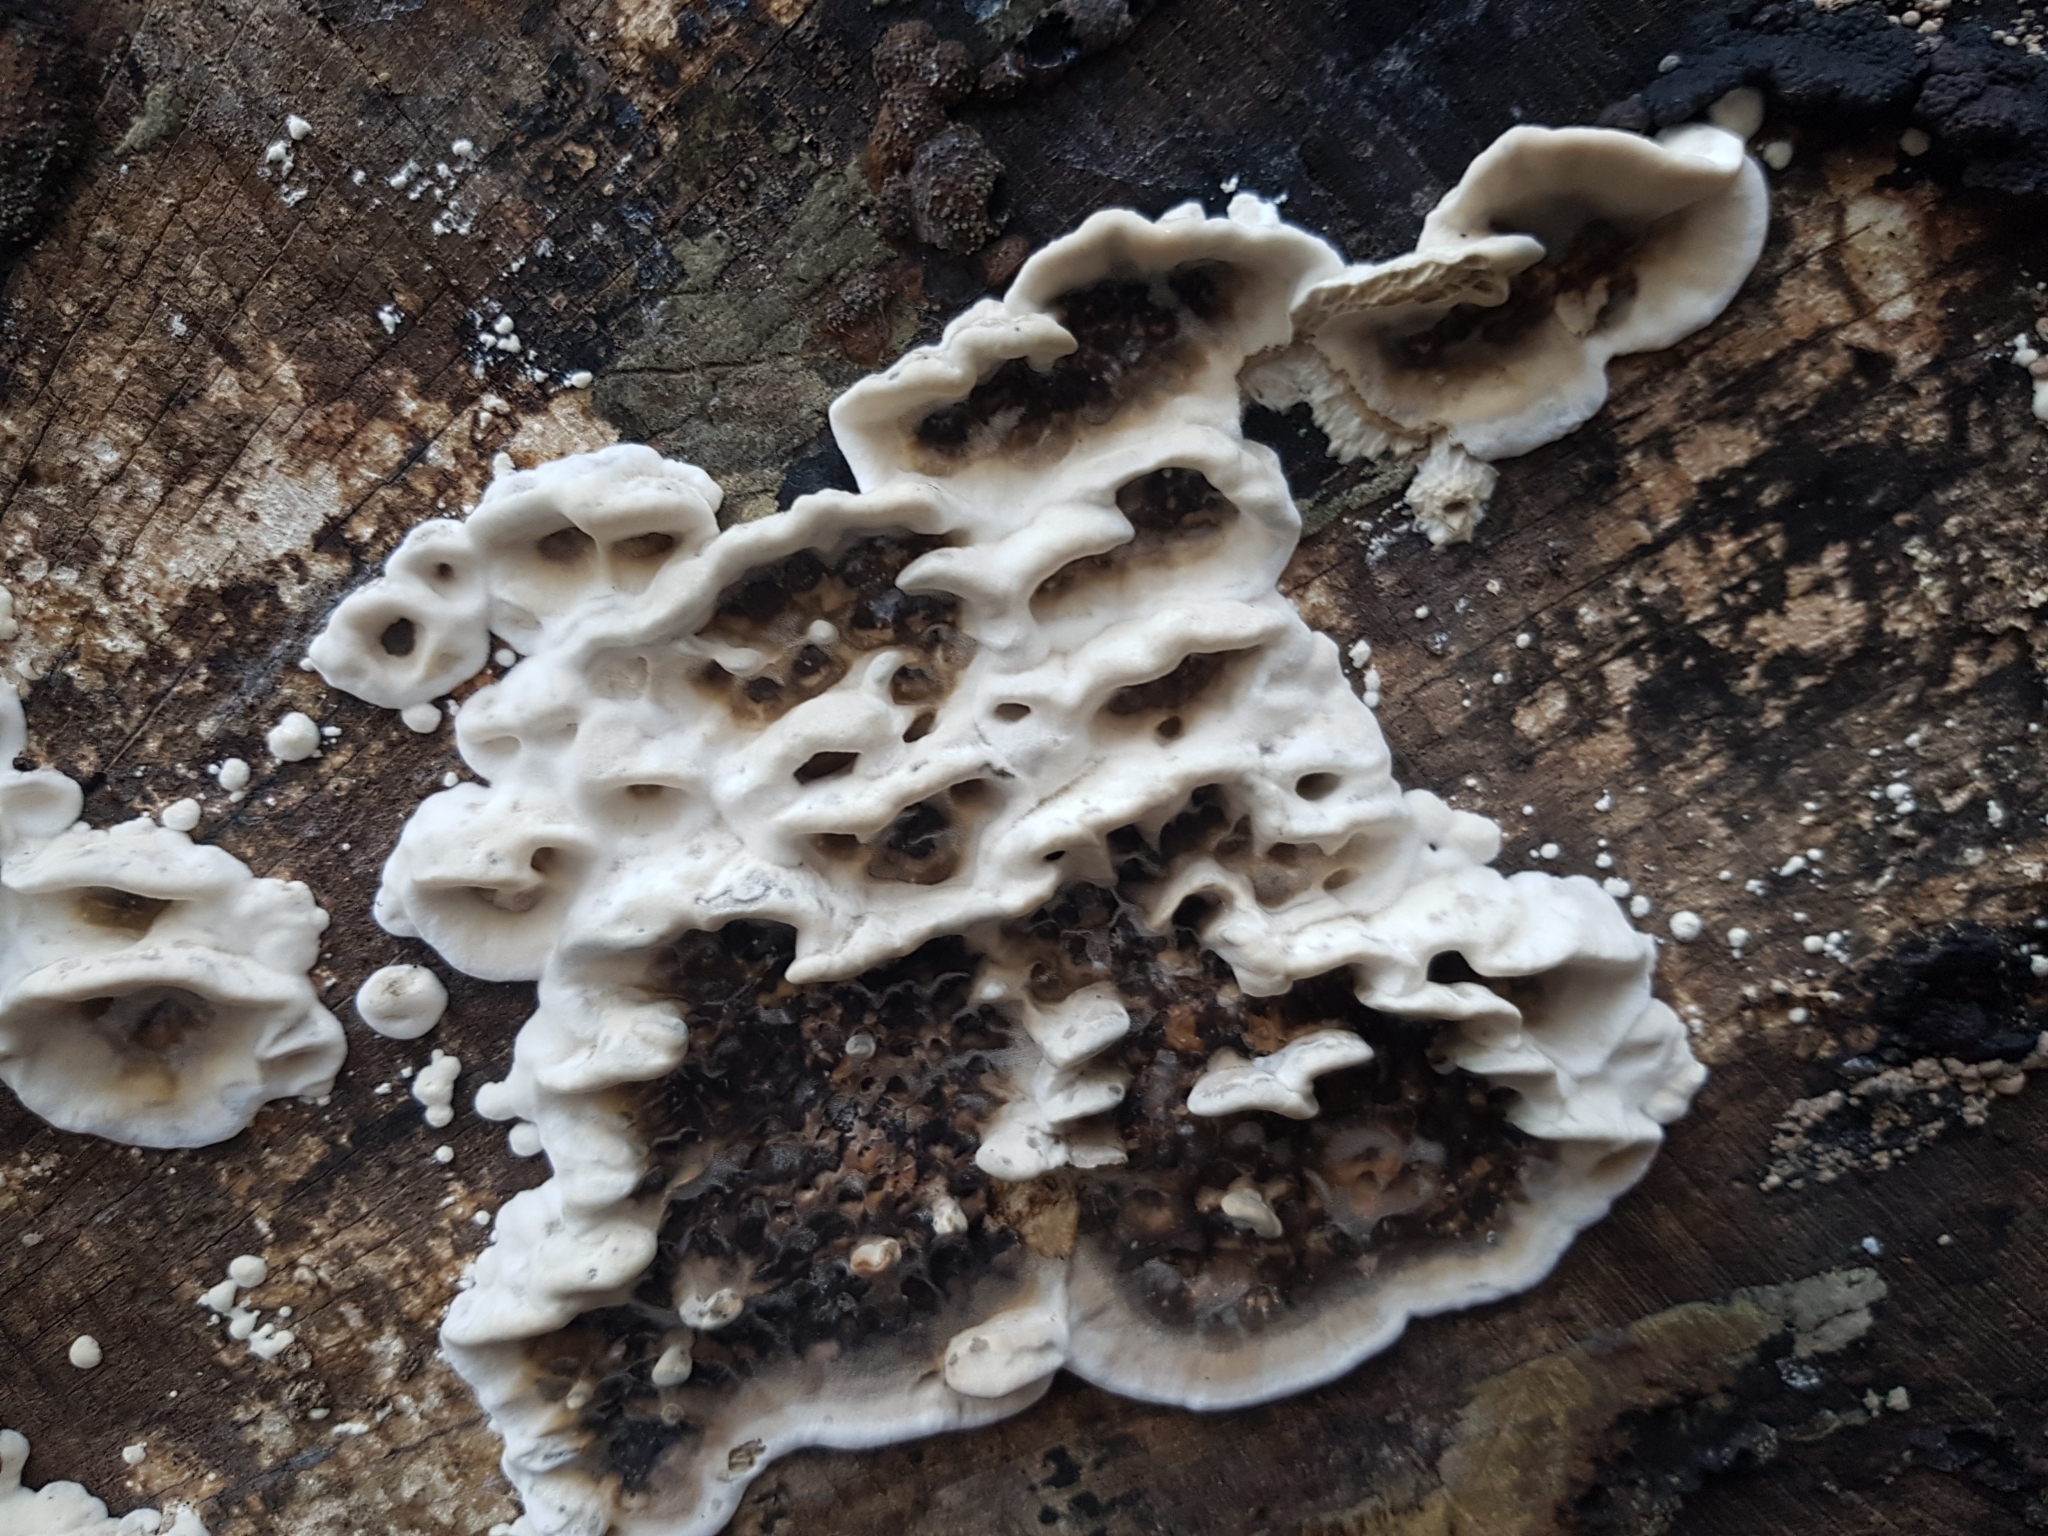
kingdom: Fungi
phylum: Basidiomycota
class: Agaricomycetes
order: Polyporales
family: Phanerochaetaceae
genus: Bjerkandera
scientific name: Bjerkandera adusta
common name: Smoky bracket
